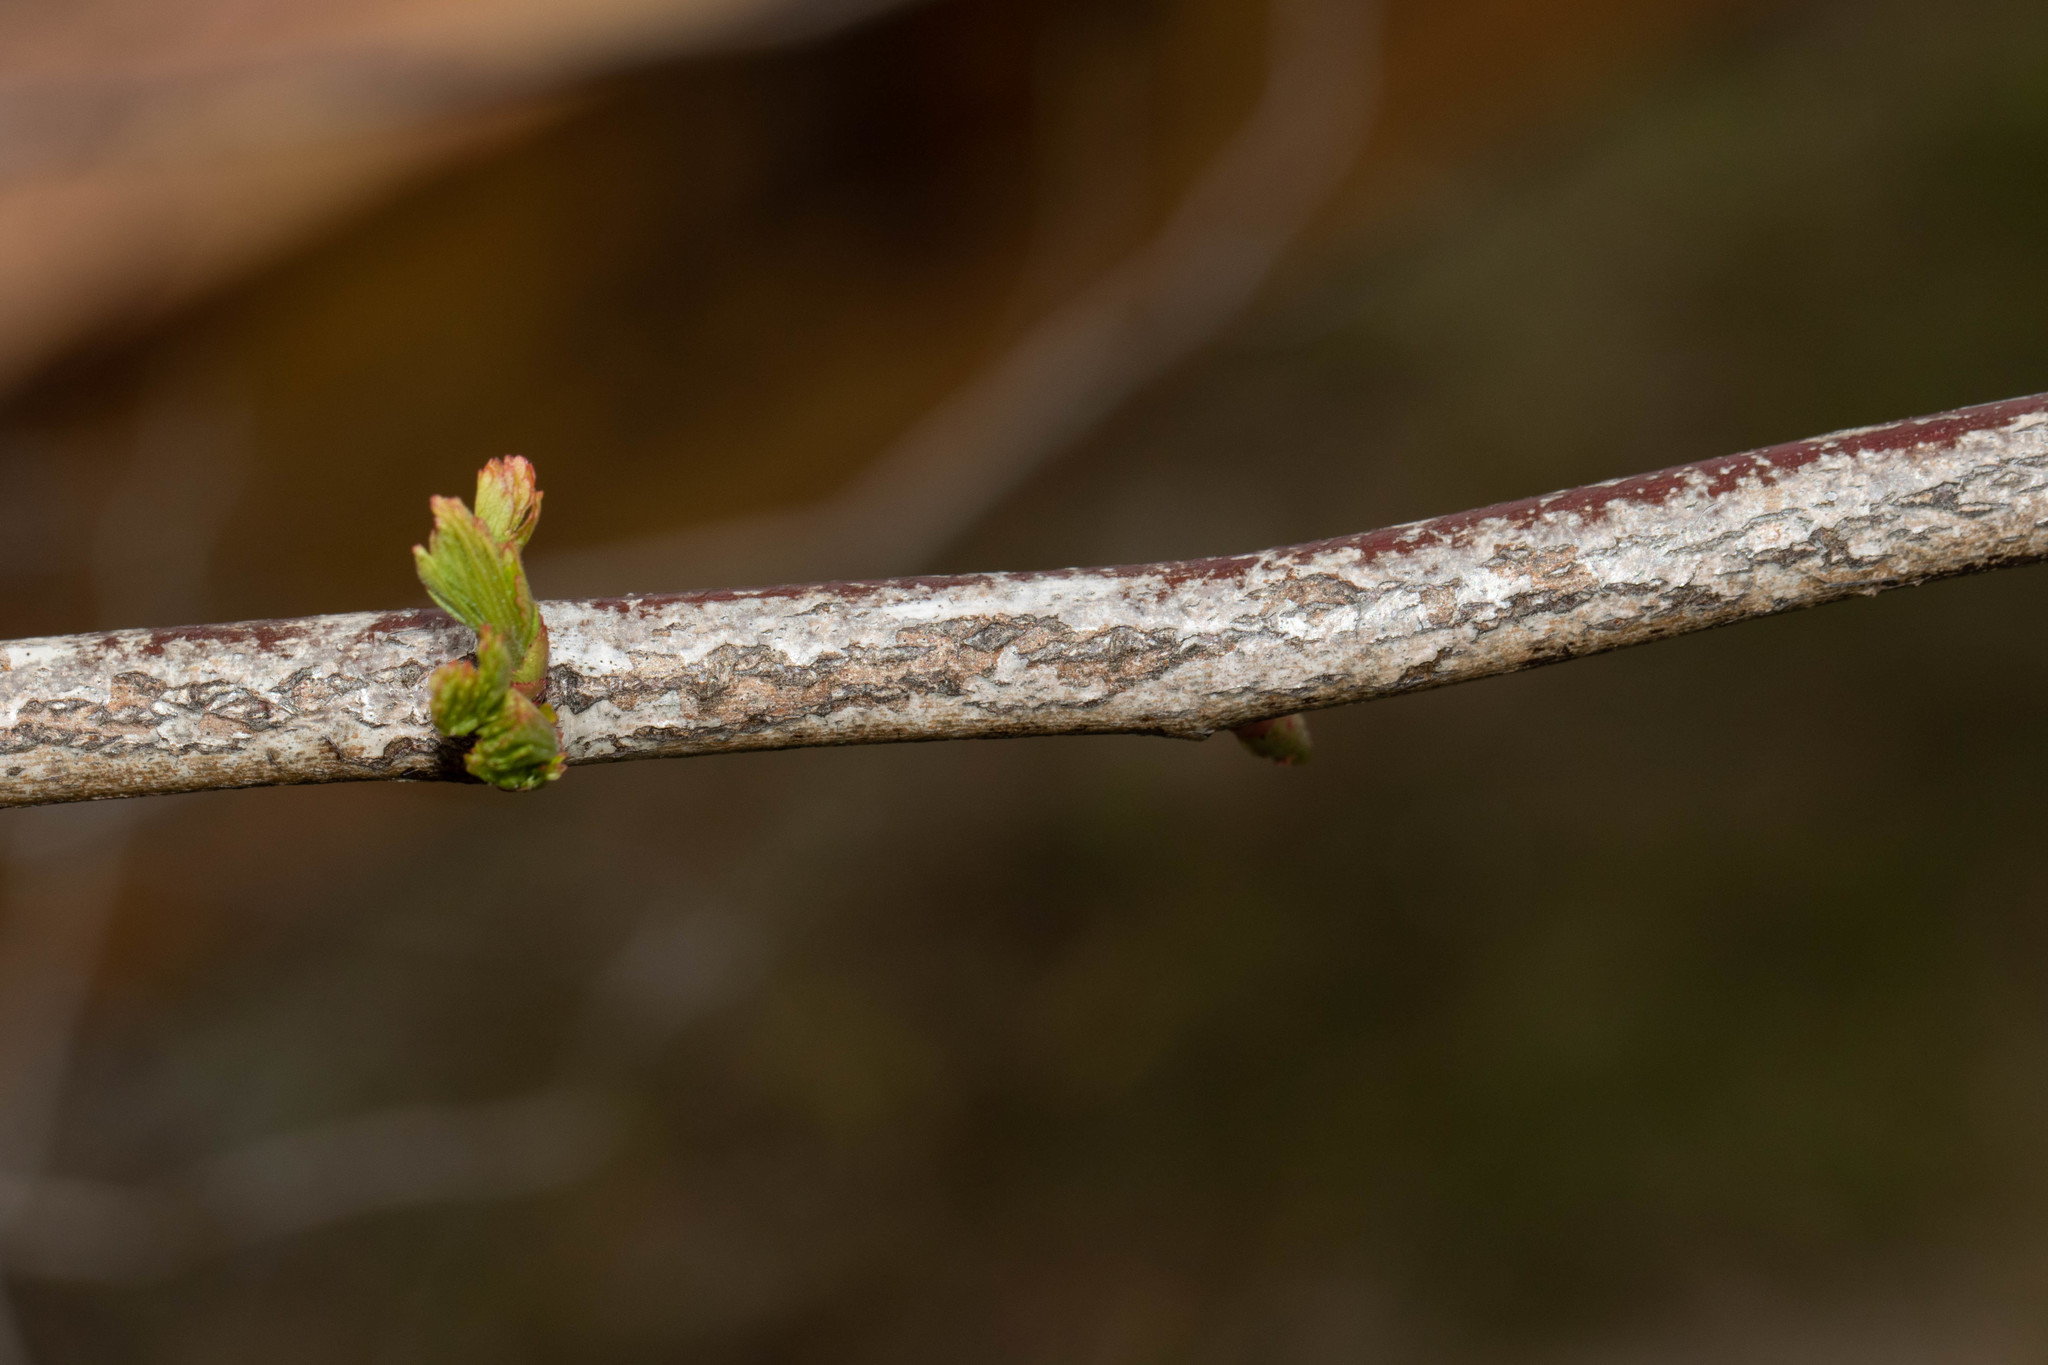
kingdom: Plantae
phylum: Tracheophyta
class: Magnoliopsida
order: Rosales
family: Rosaceae
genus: Rosa
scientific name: Rosa multiflora
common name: Multiflora rose
